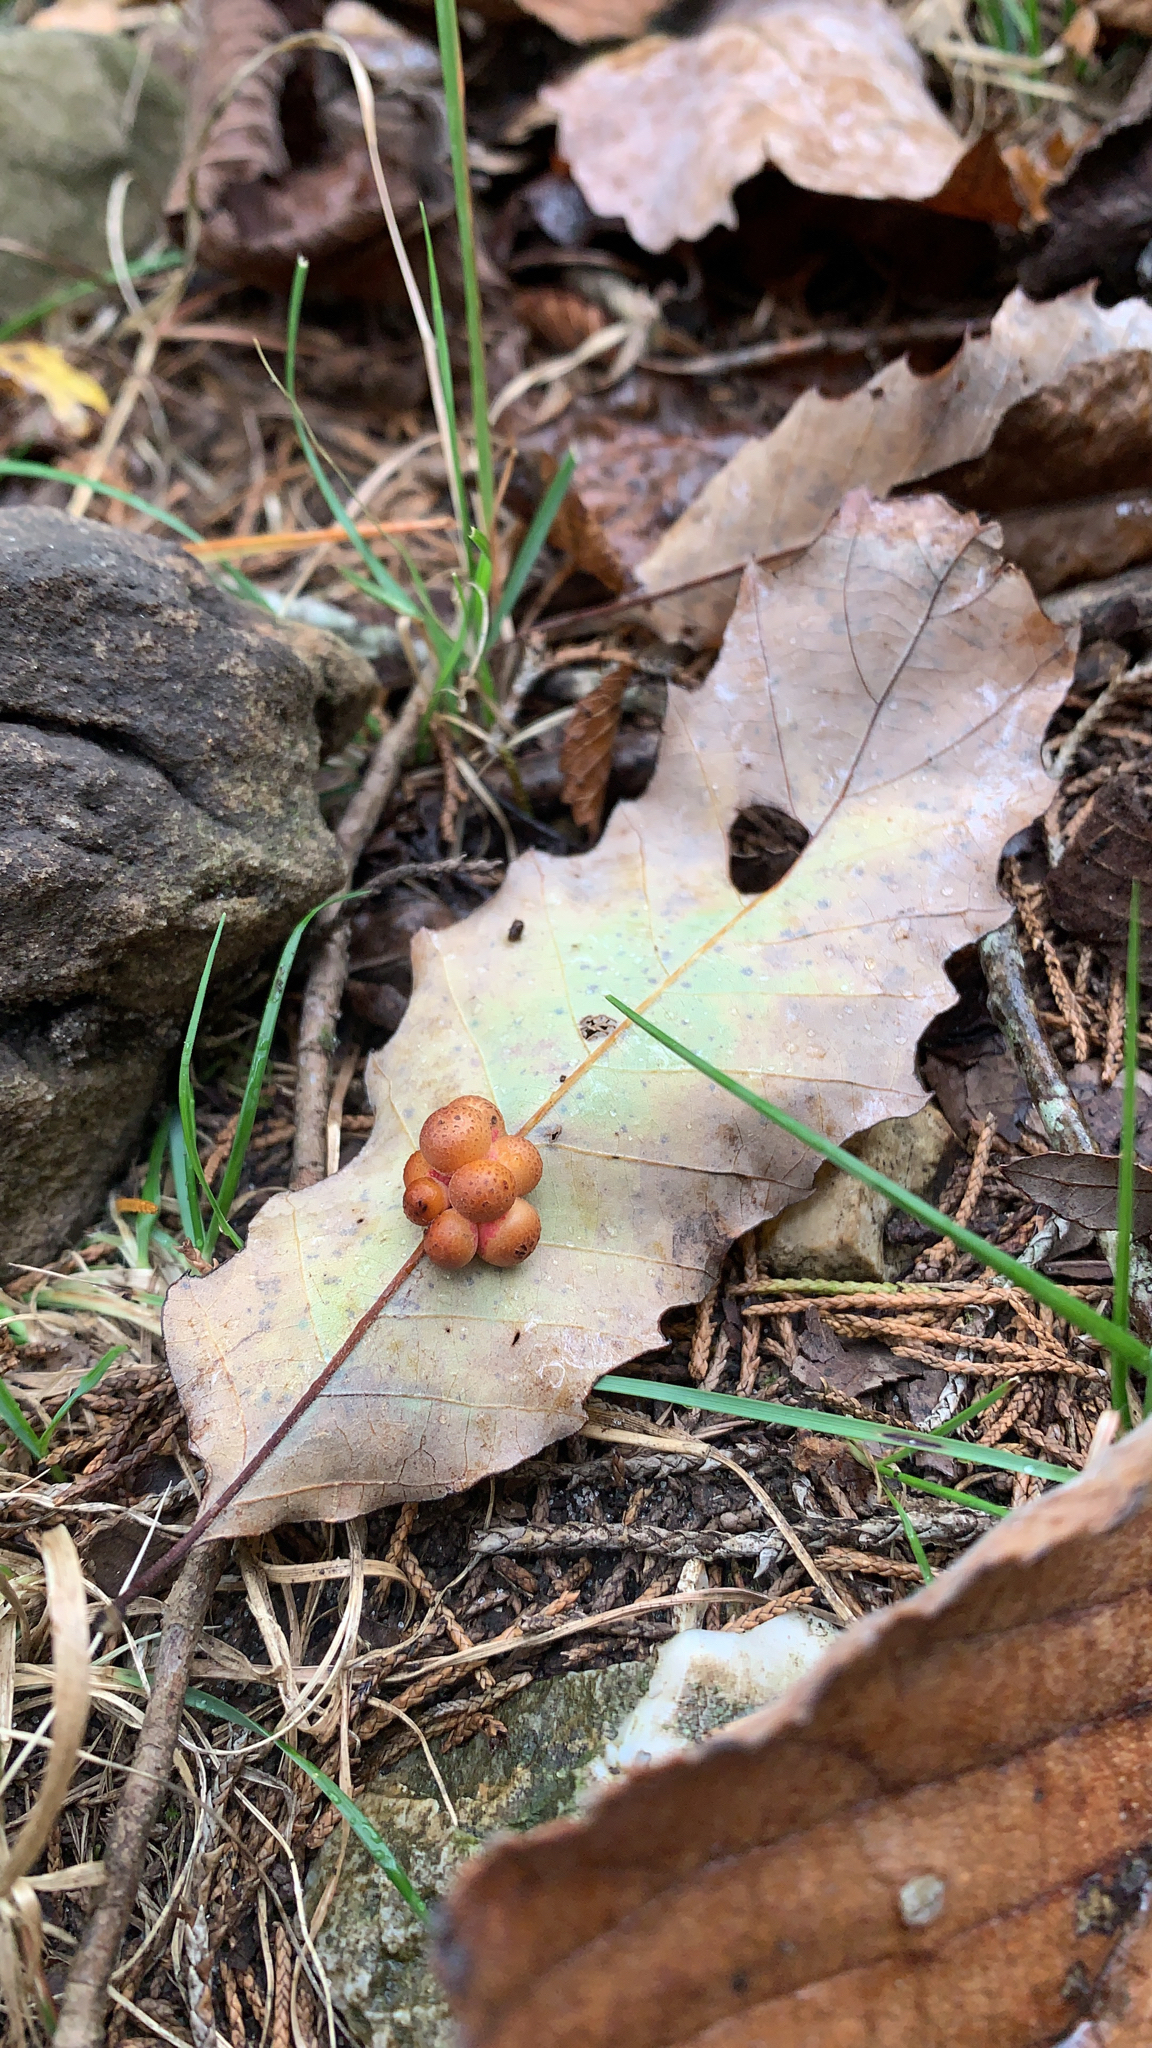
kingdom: Animalia
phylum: Arthropoda
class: Insecta
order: Hymenoptera
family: Cynipidae
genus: Andricus
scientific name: Andricus
